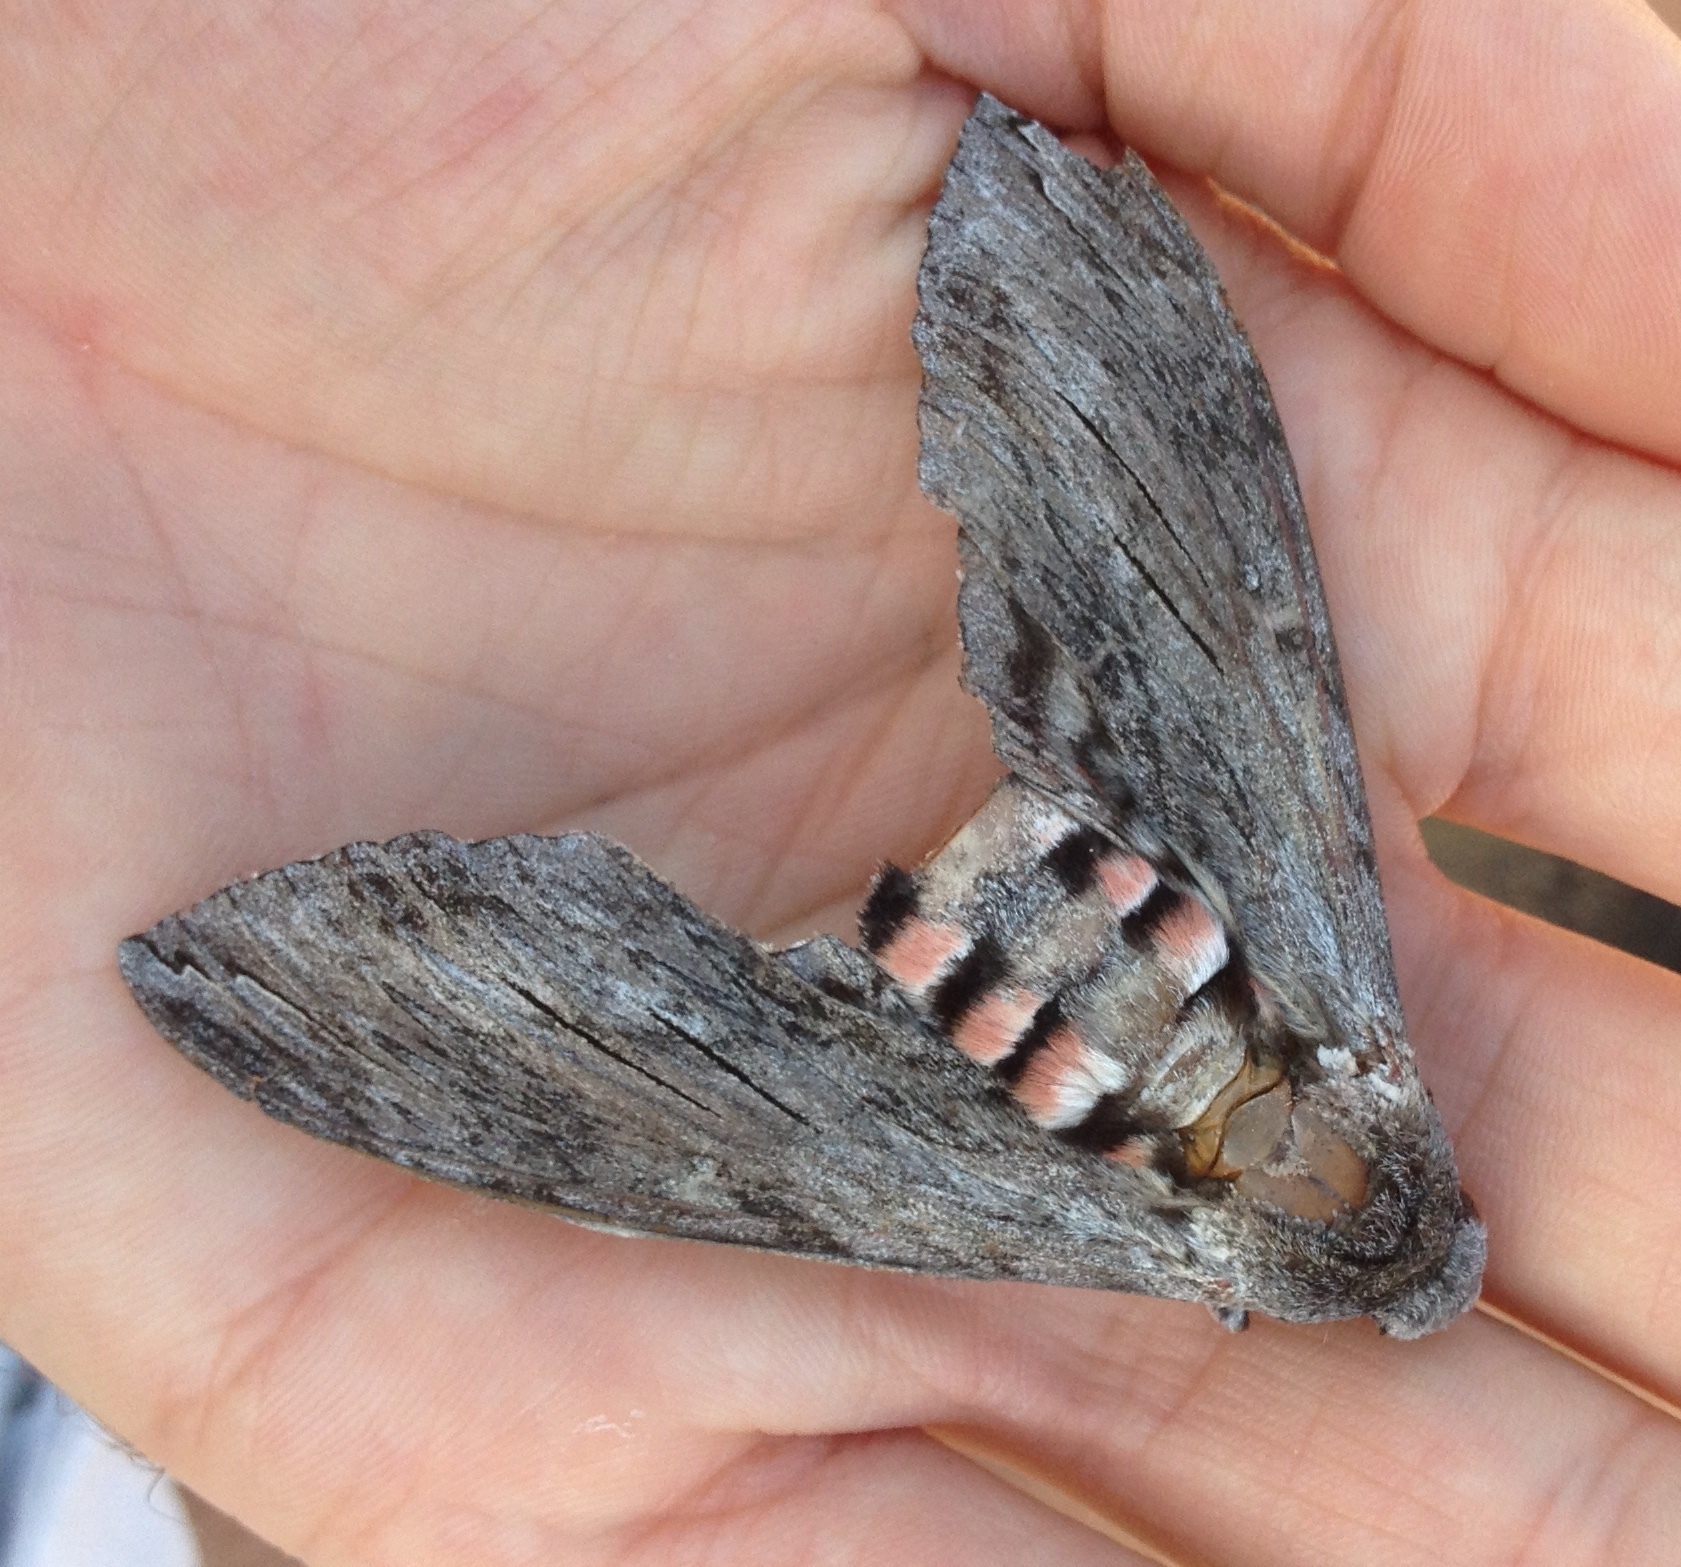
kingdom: Animalia
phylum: Arthropoda
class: Insecta
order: Lepidoptera
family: Sphingidae
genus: Agrius
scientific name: Agrius convolvuli
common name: Convolvulus hawkmoth
